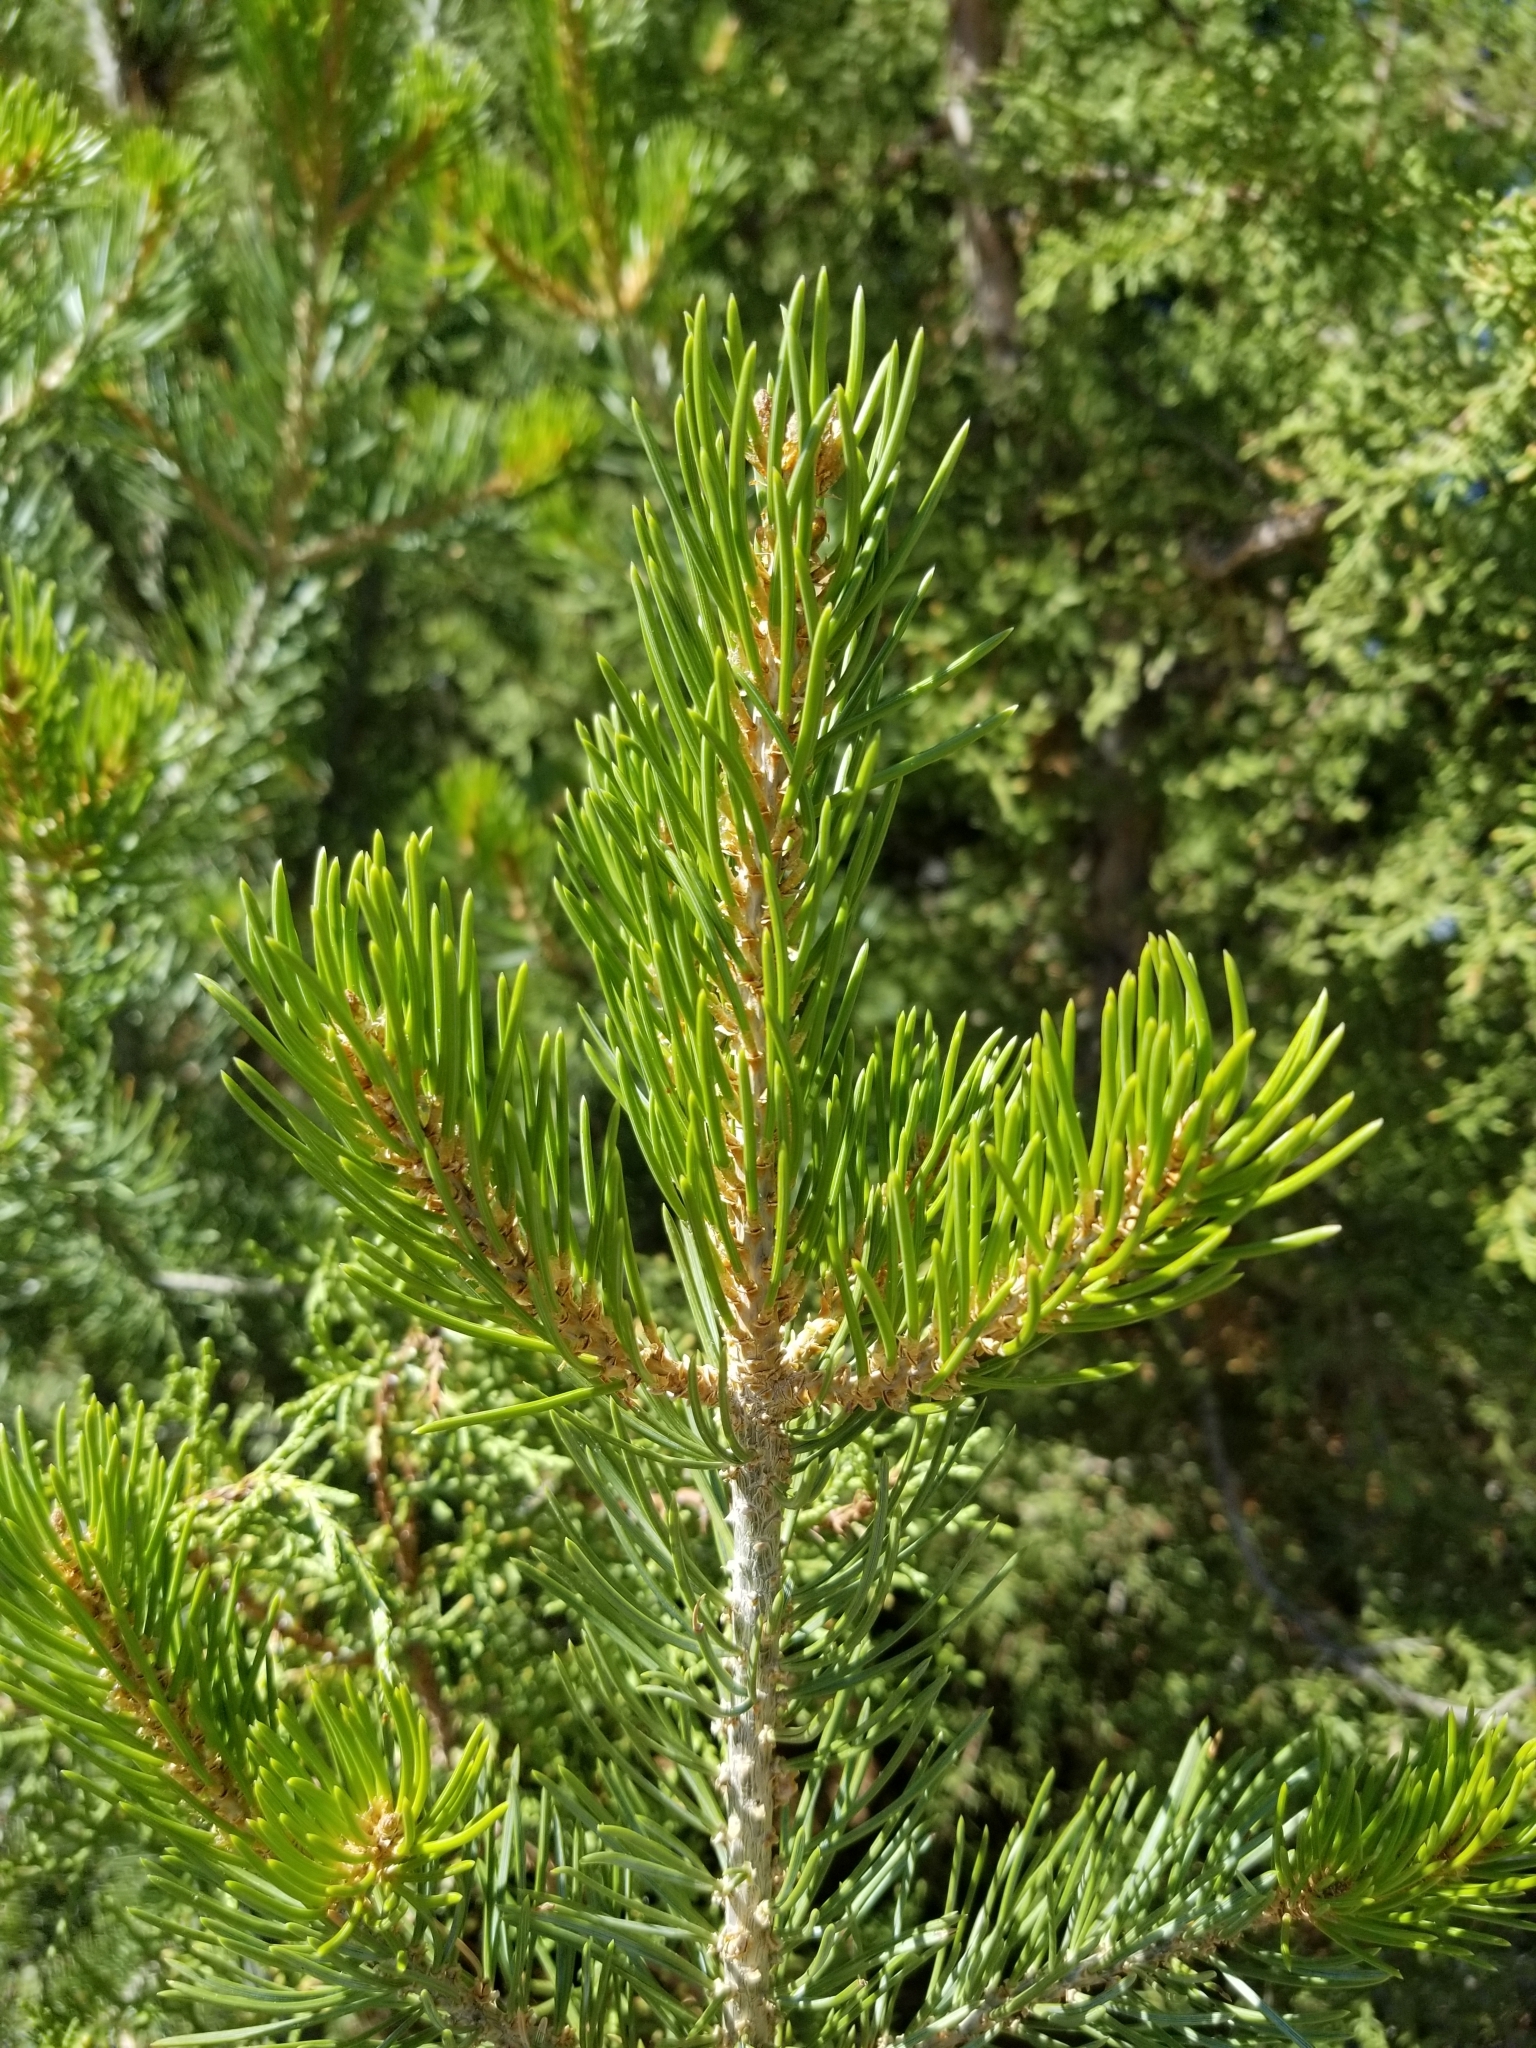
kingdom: Plantae
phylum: Tracheophyta
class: Pinopsida
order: Pinales
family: Pinaceae
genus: Pinus
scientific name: Pinus edulis
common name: Colorado pinyon
